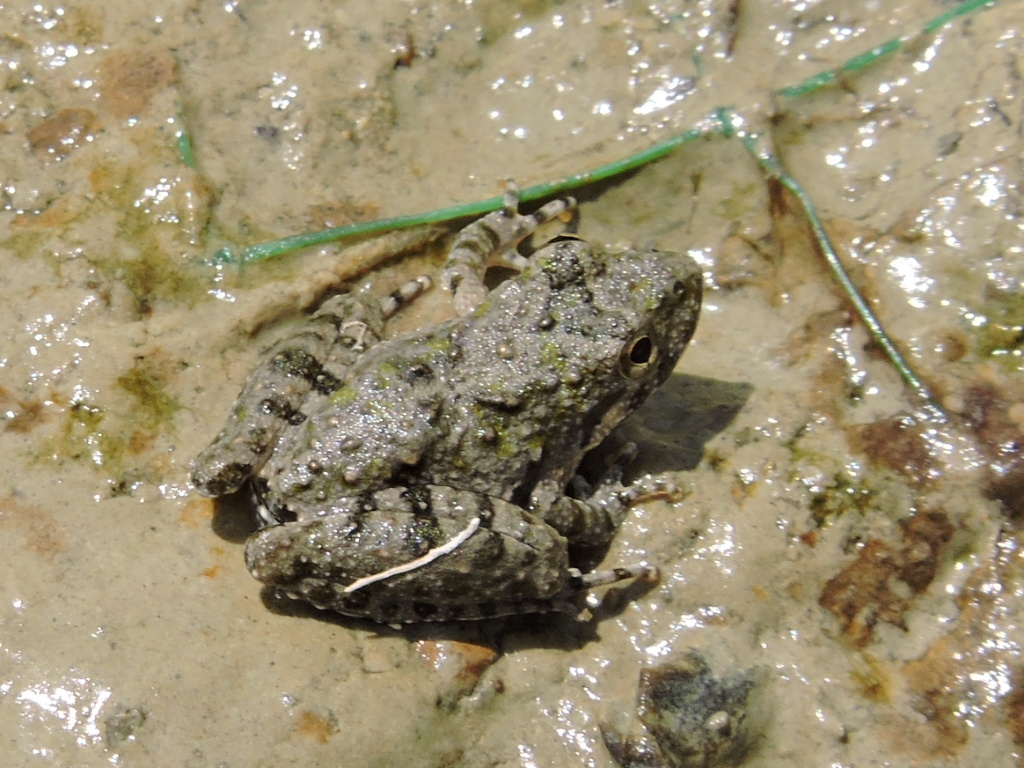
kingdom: Animalia
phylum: Chordata
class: Amphibia
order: Anura
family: Hylidae
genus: Acris
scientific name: Acris blanchardi
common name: Blanchard's cricket frog
